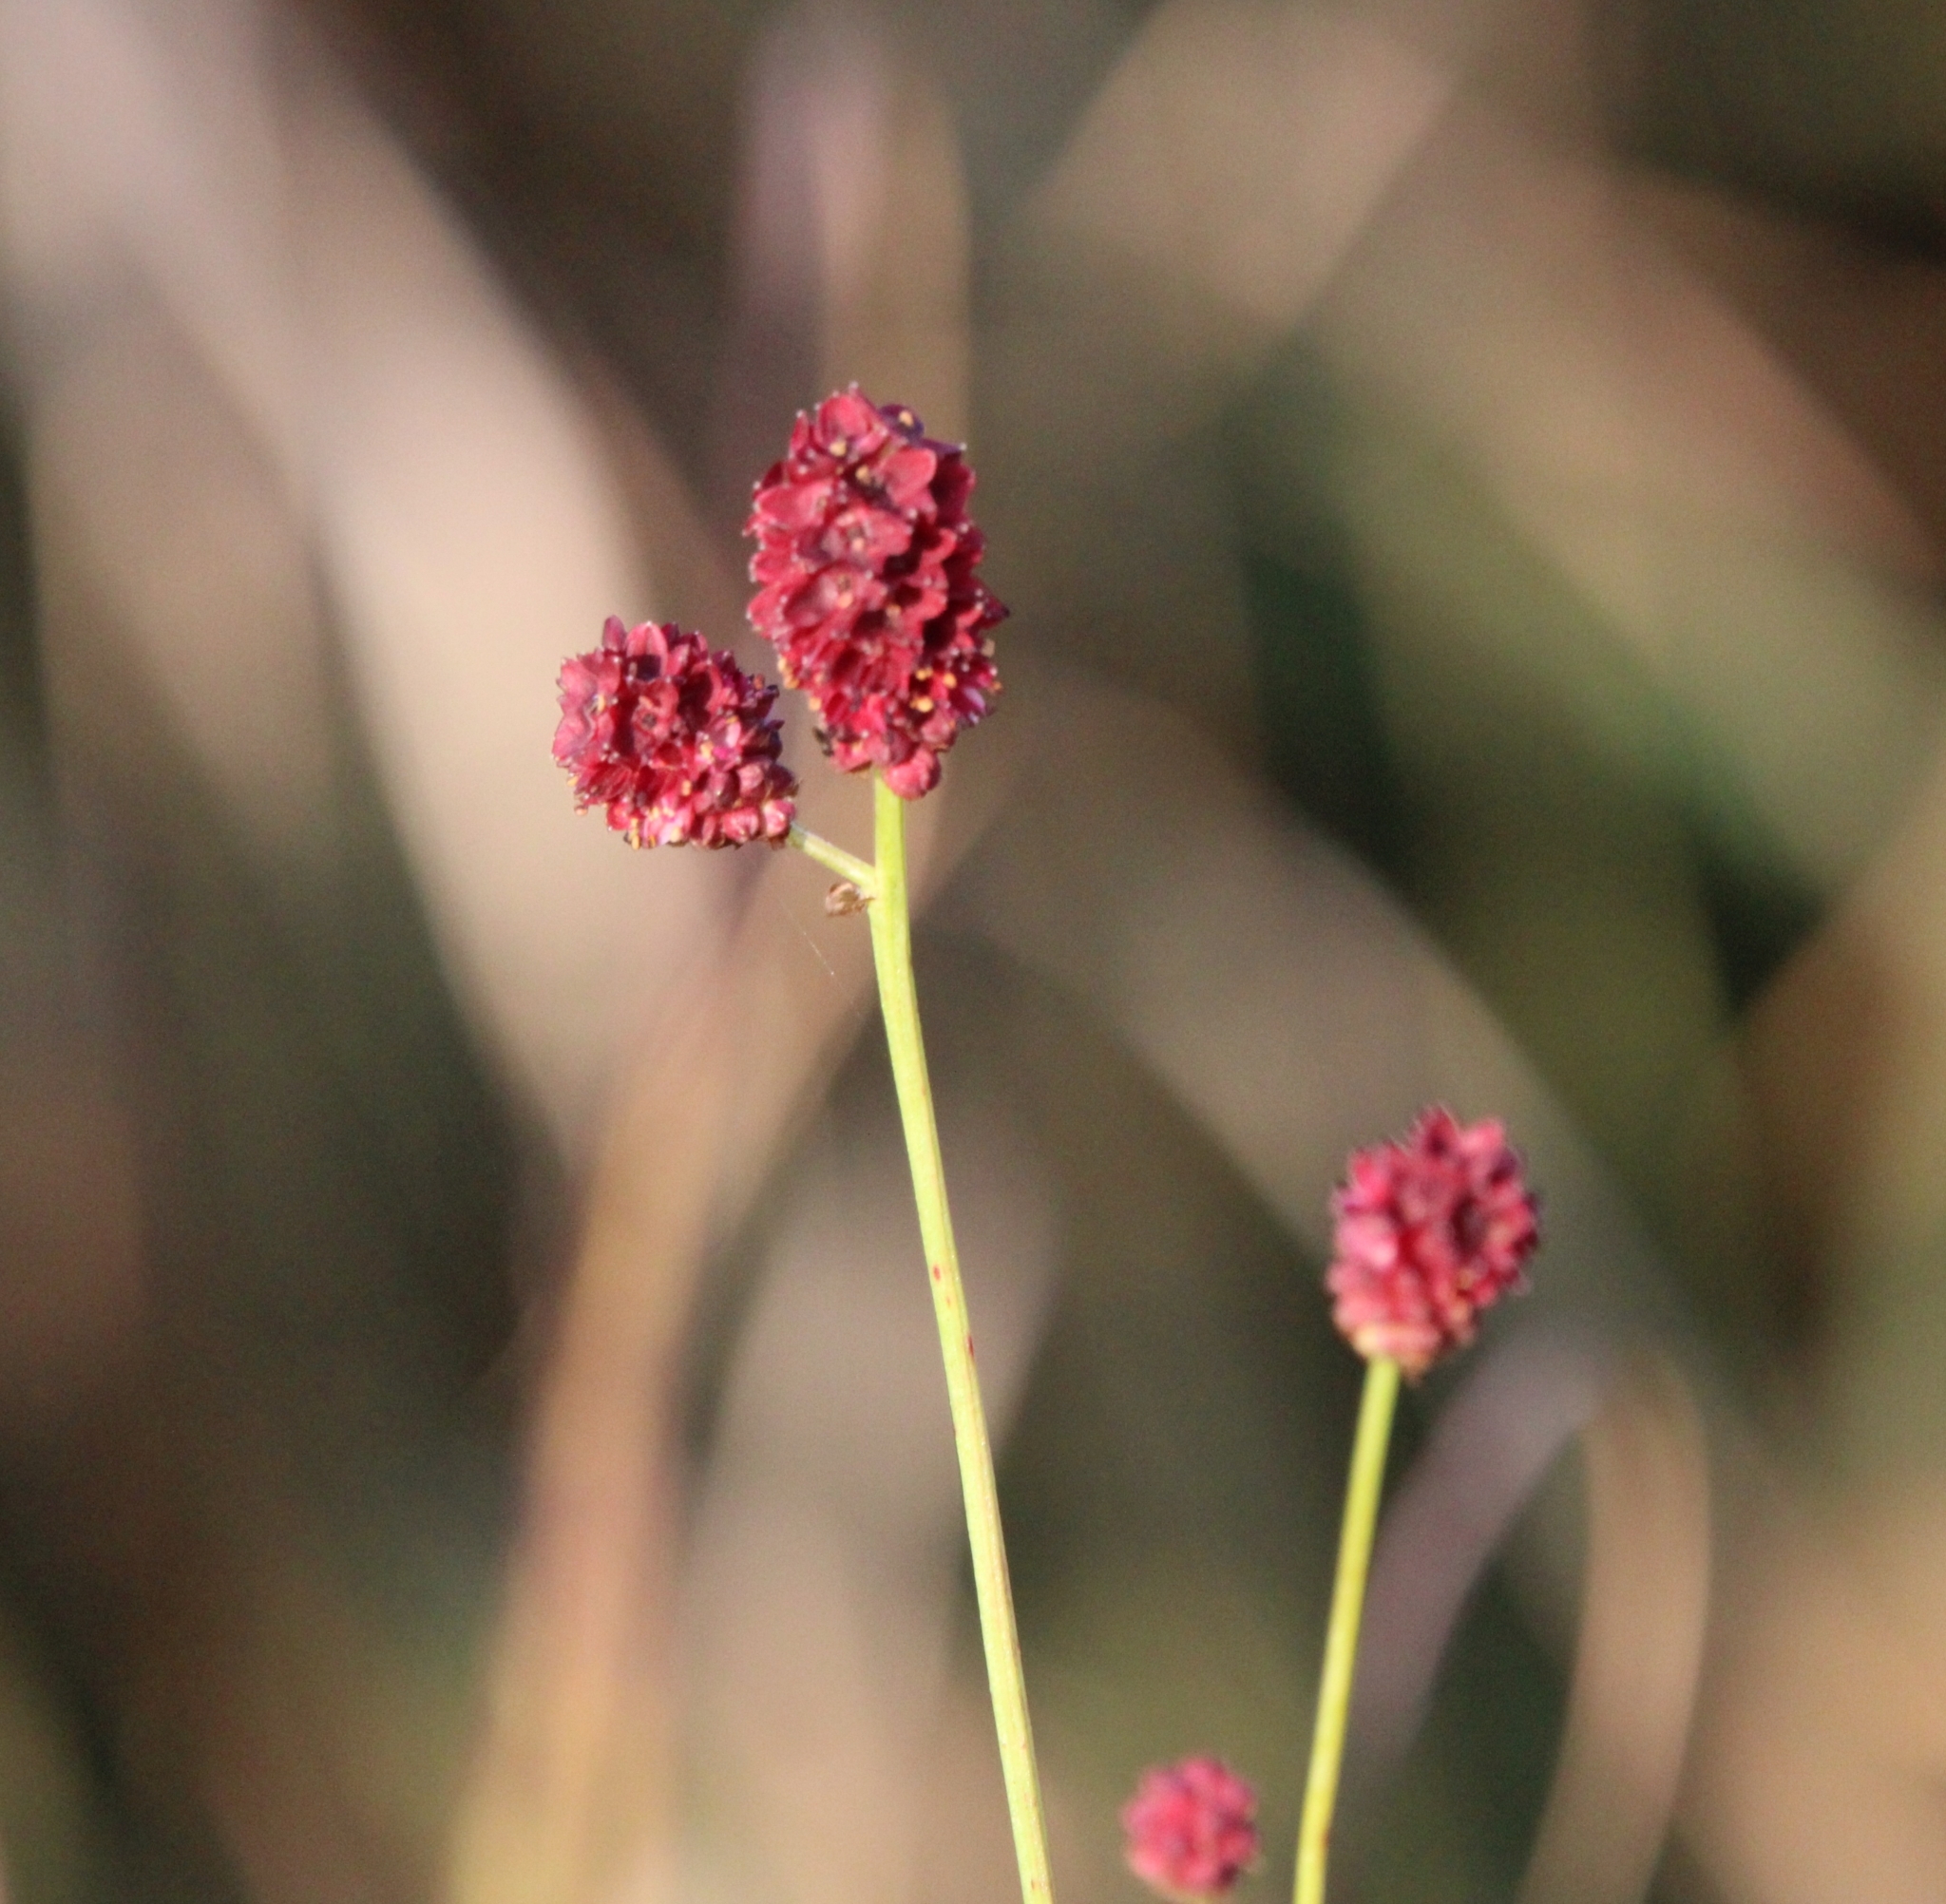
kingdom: Plantae
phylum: Tracheophyta
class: Magnoliopsida
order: Rosales
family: Rosaceae
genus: Sanguisorba
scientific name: Sanguisorba officinalis
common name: Great burnet
